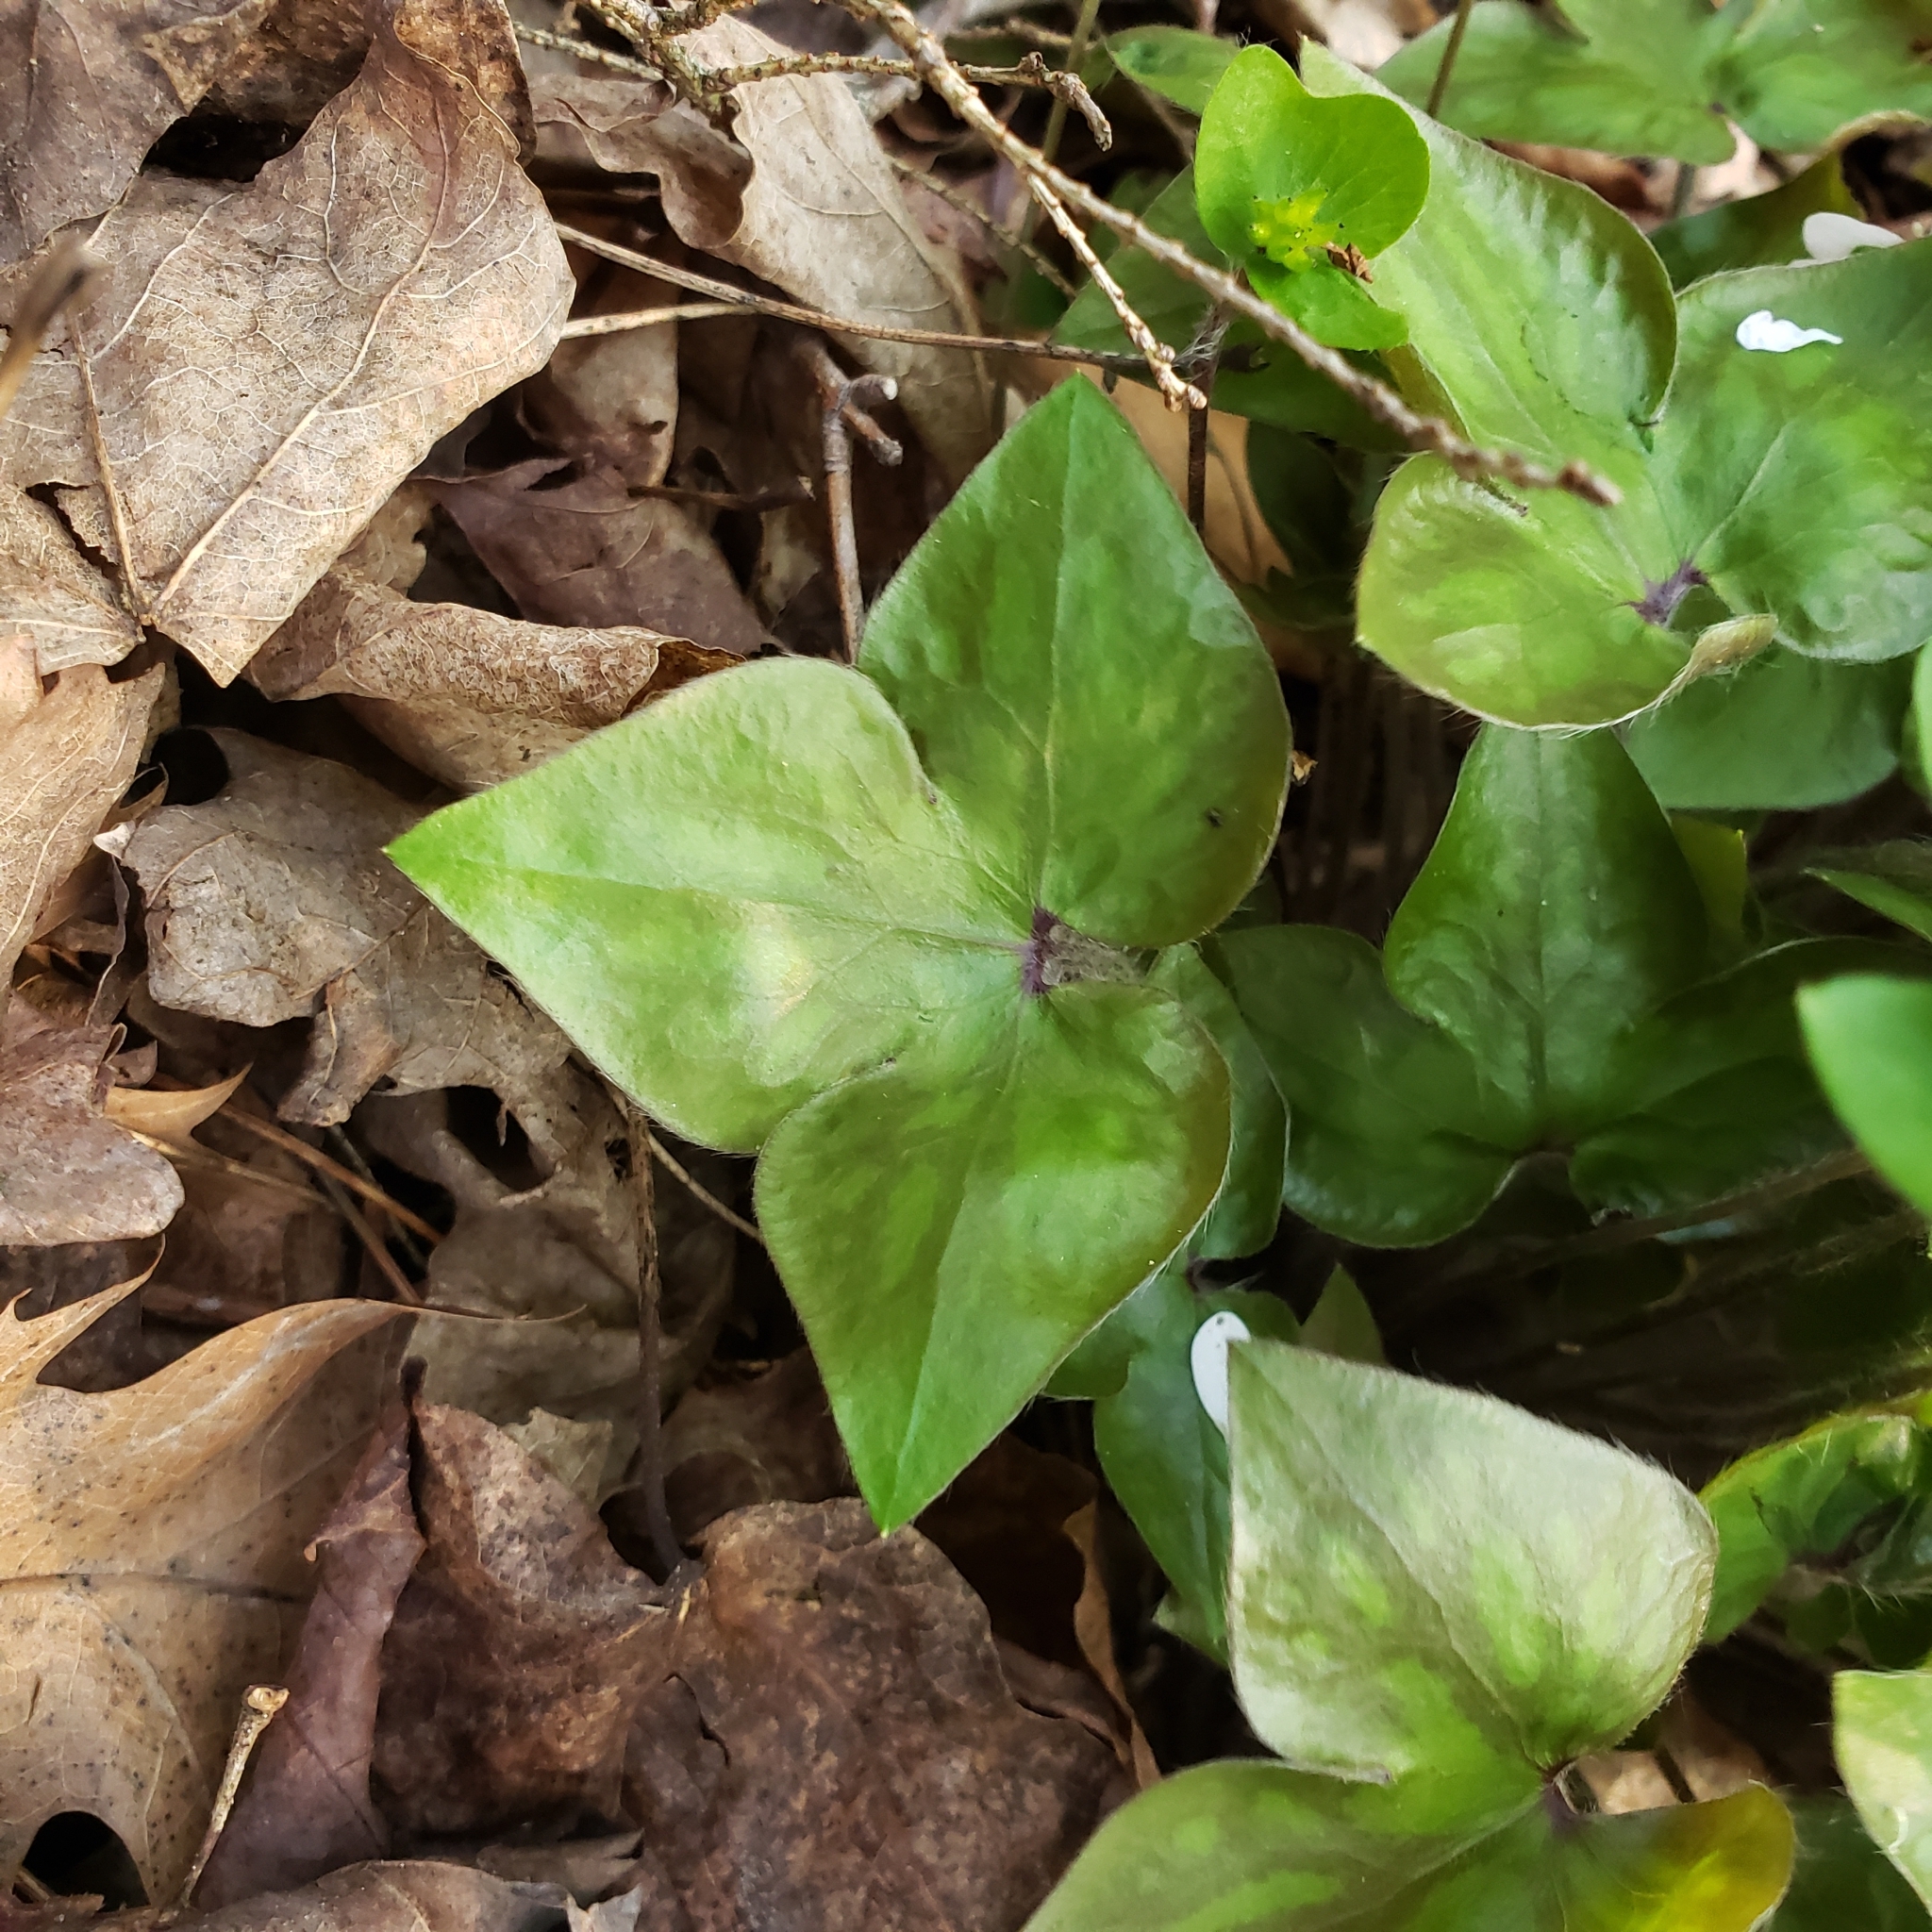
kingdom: Plantae
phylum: Tracheophyta
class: Magnoliopsida
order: Ranunculales
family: Ranunculaceae
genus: Hepatica
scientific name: Hepatica acutiloba
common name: Sharp-lobed hepatica
